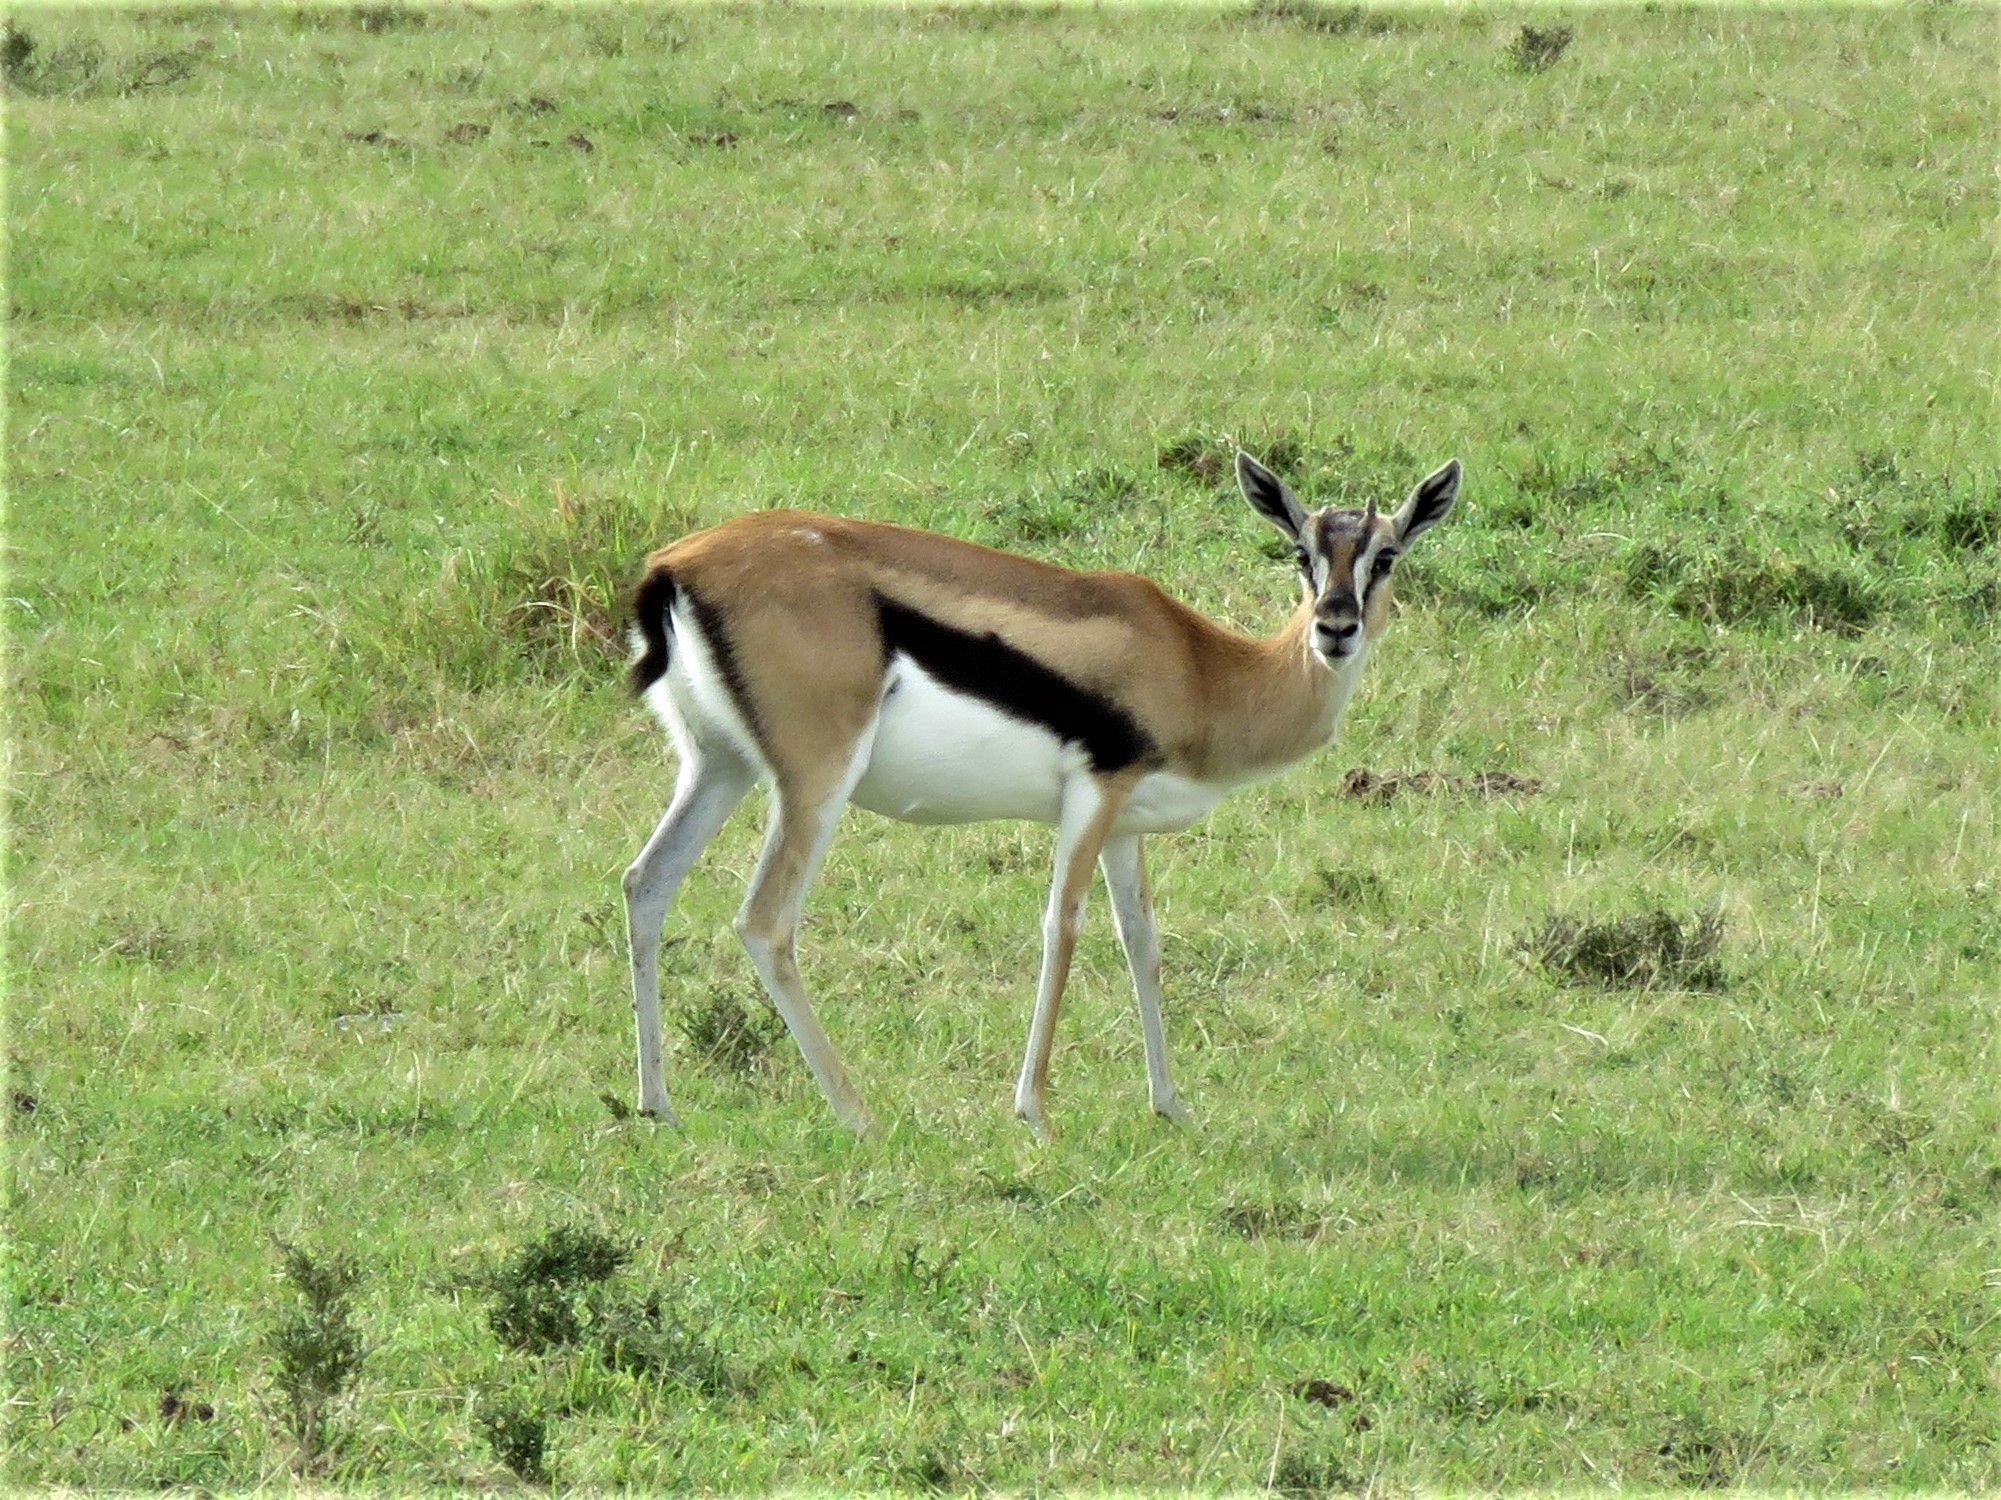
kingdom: Animalia
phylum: Chordata
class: Mammalia
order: Artiodactyla
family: Bovidae
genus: Eudorcas
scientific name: Eudorcas thomsonii
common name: Thomson's gazelle
